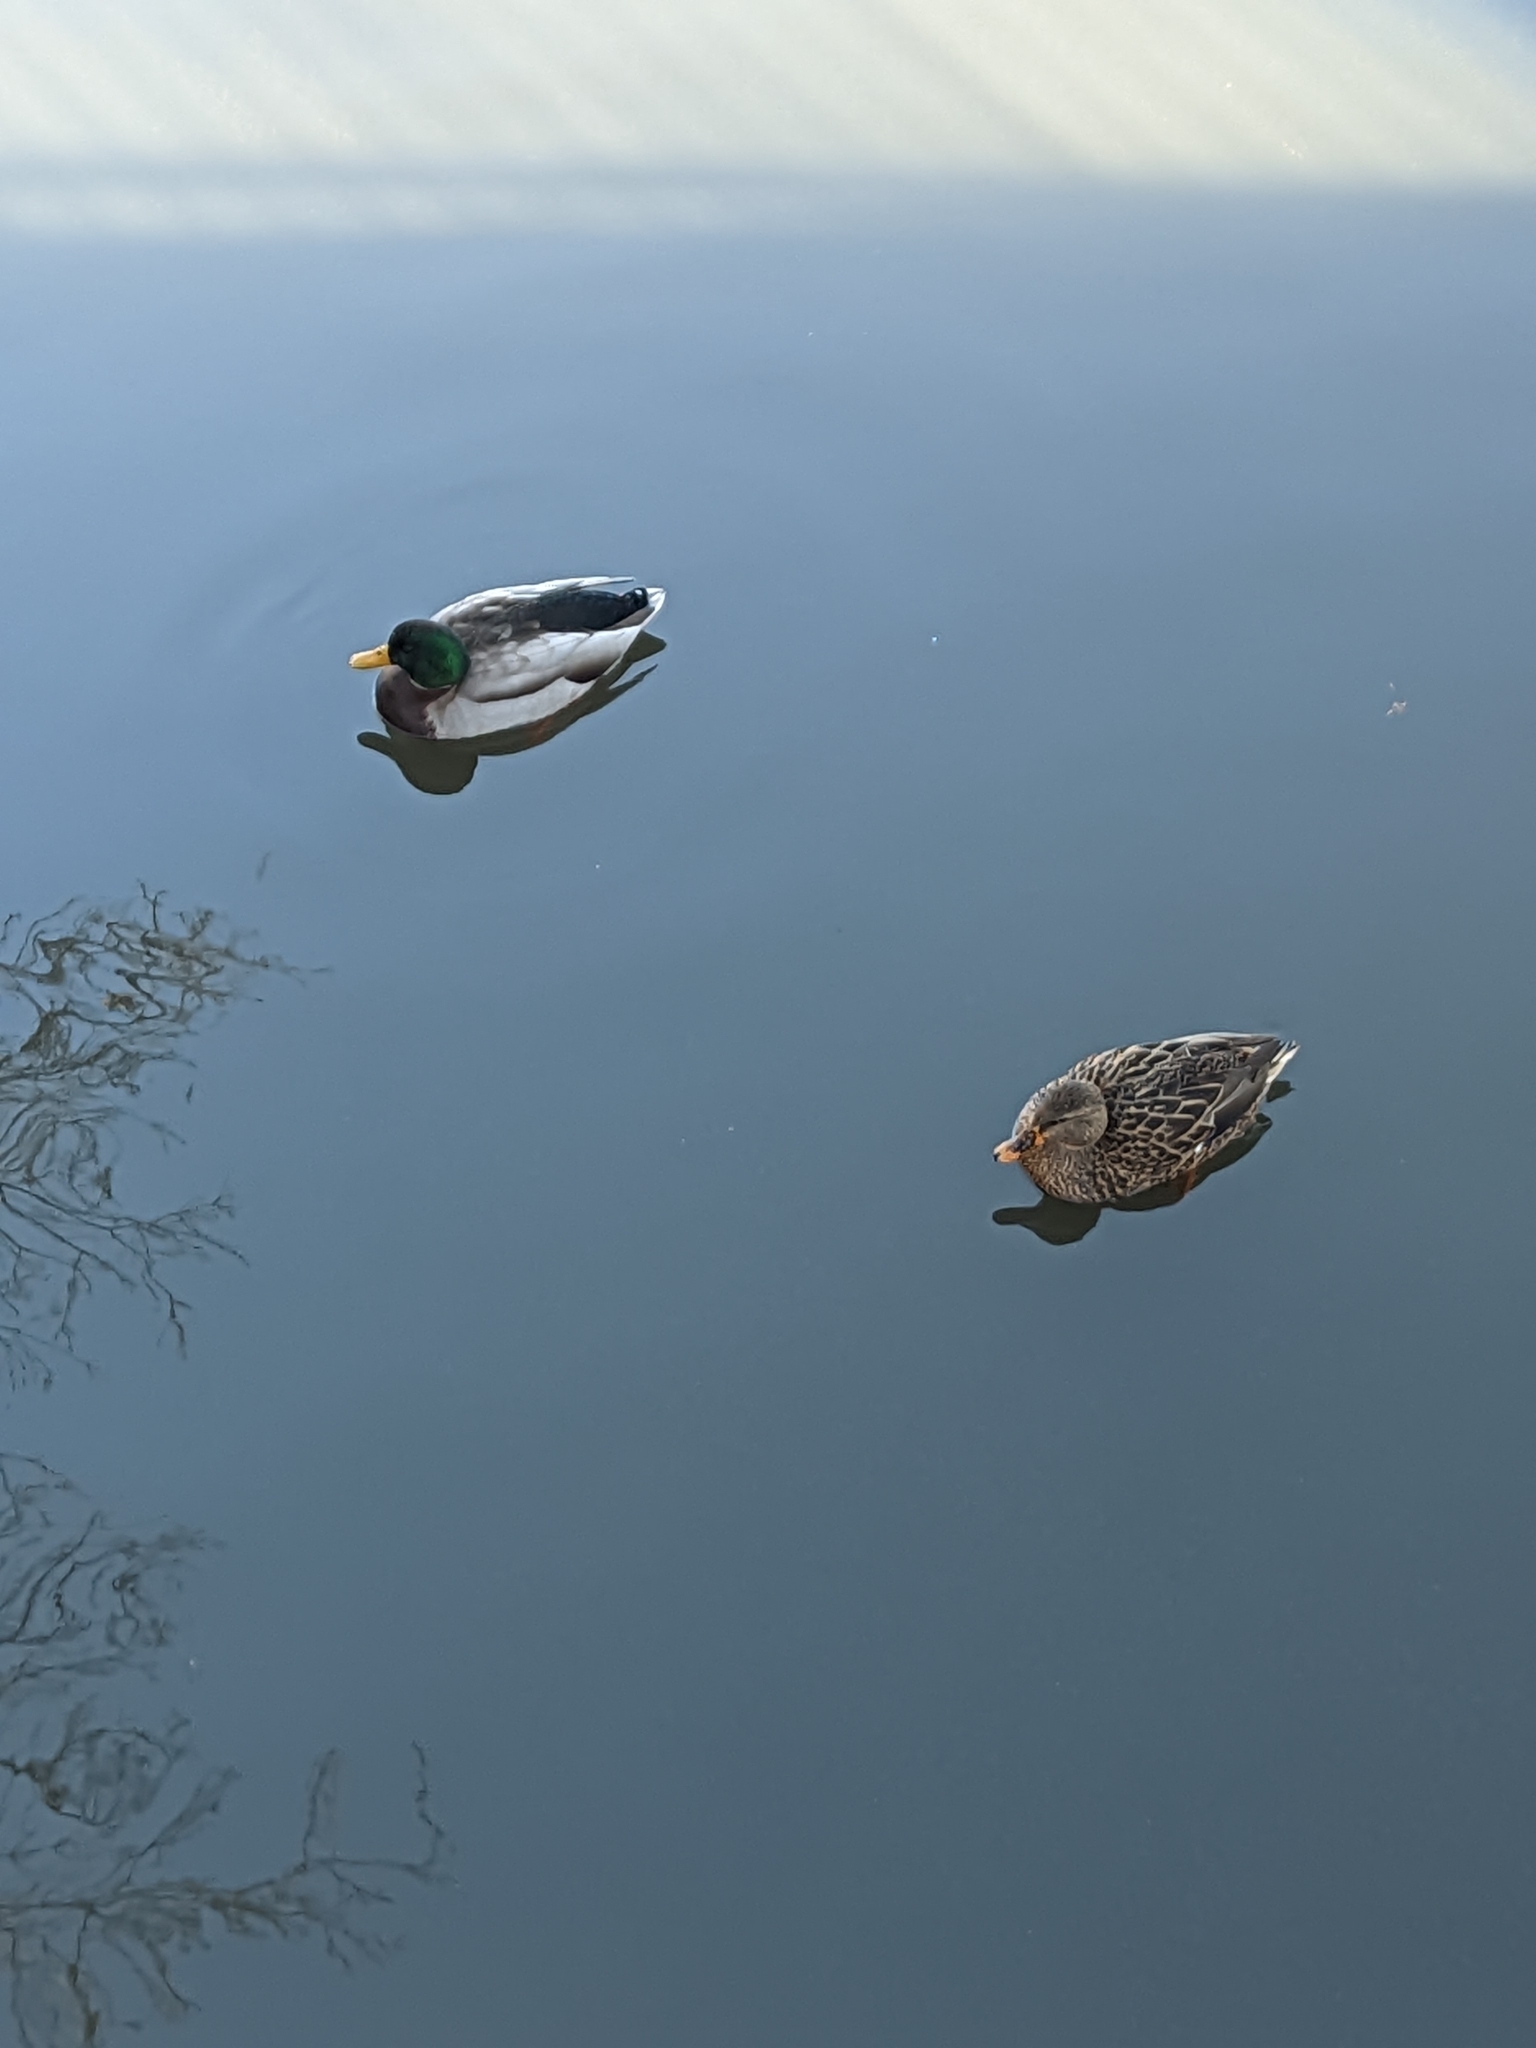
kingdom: Animalia
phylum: Chordata
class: Aves
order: Anseriformes
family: Anatidae
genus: Anas
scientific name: Anas platyrhynchos
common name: Mallard
